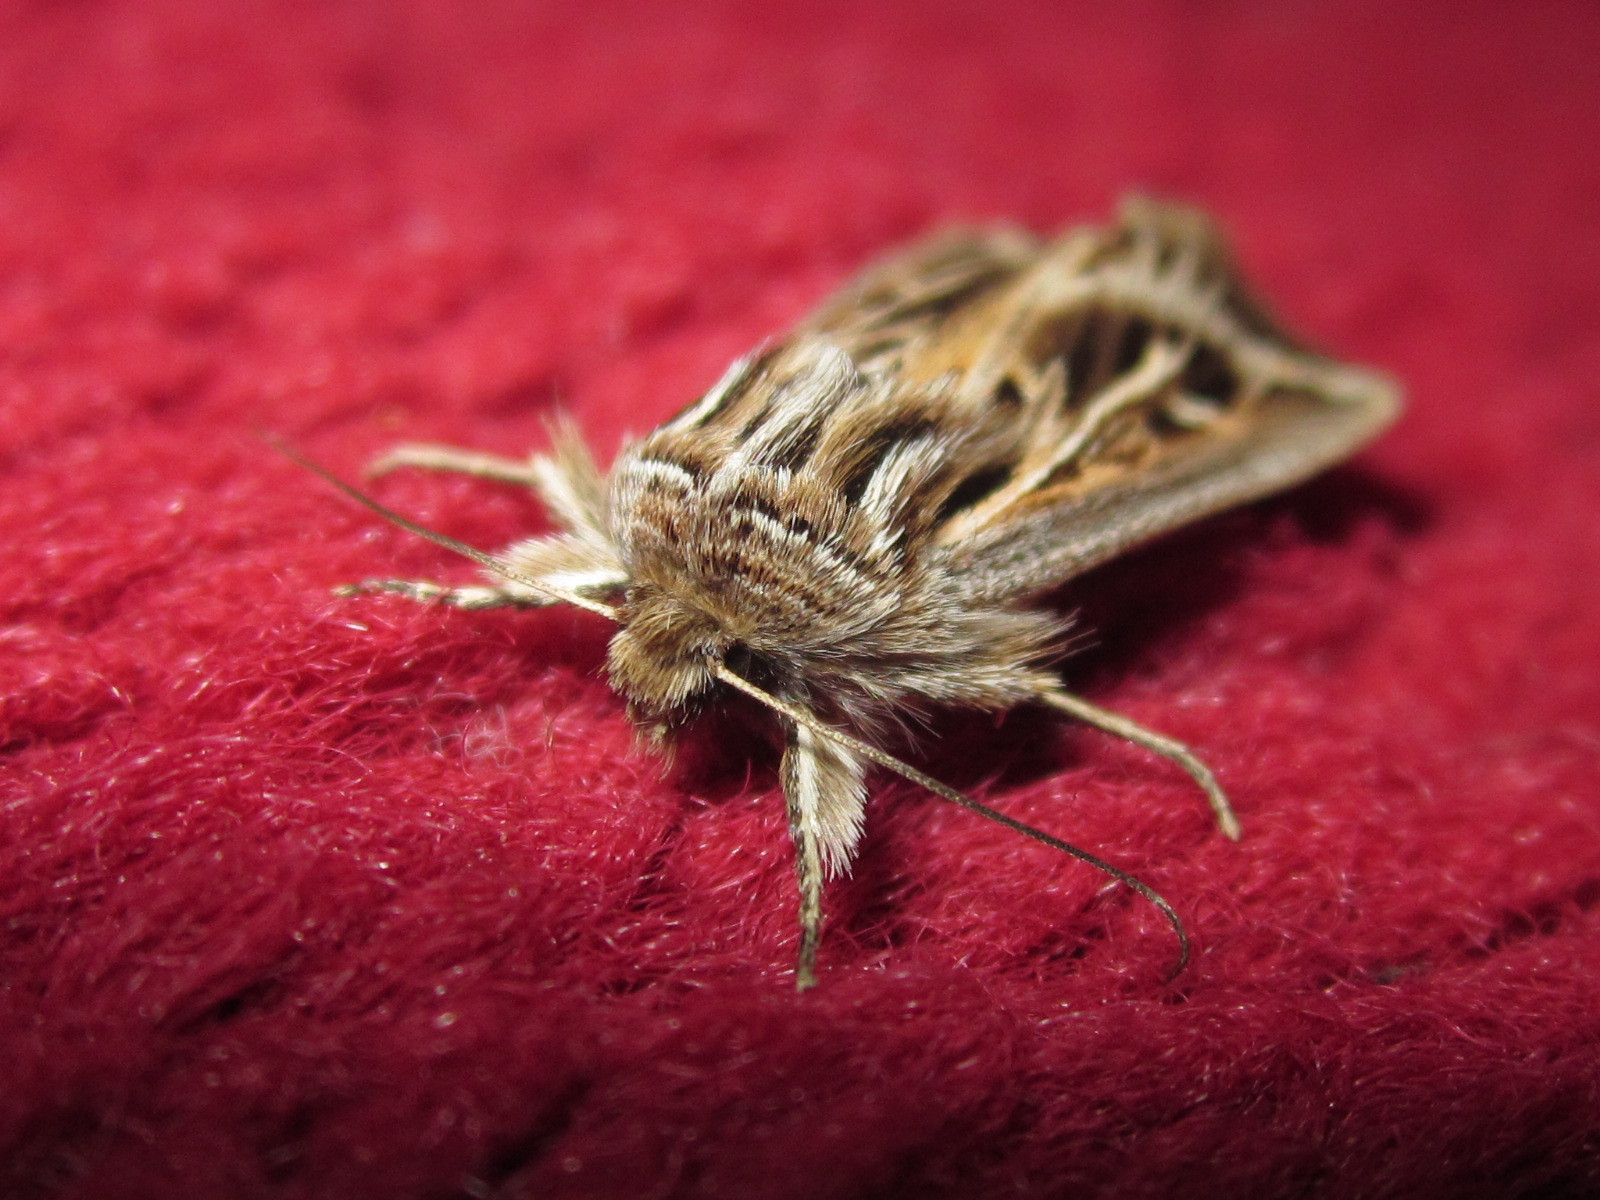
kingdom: Animalia
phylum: Arthropoda
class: Insecta
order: Lepidoptera
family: Noctuidae
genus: Dargida
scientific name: Dargida
